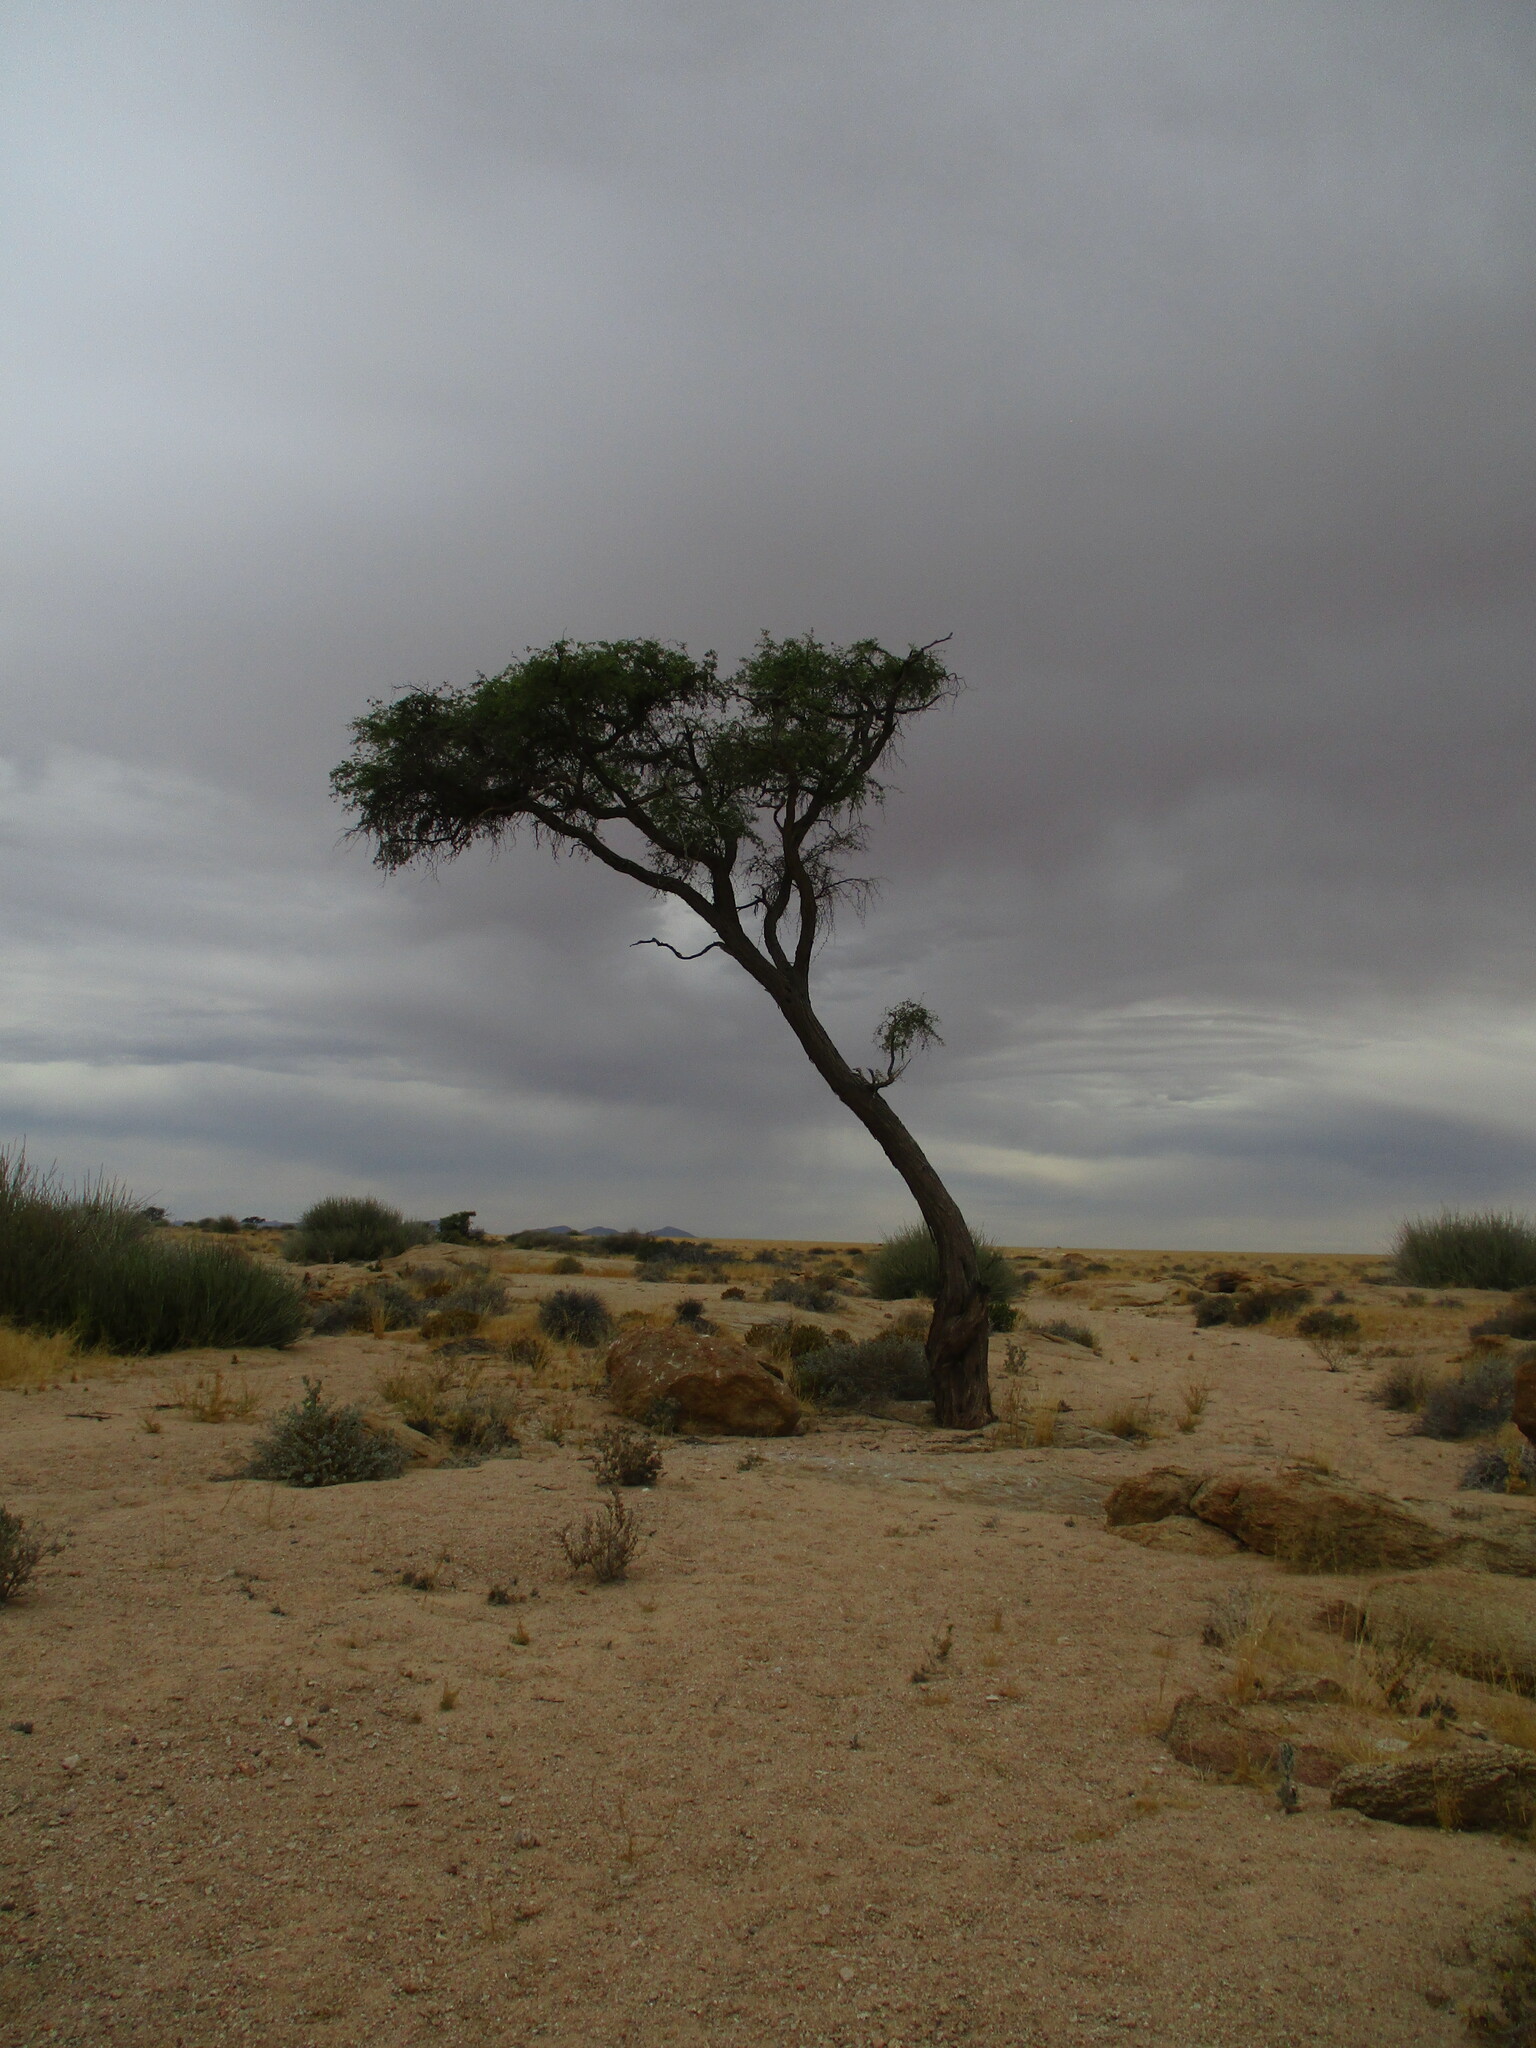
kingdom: Plantae
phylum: Tracheophyta
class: Magnoliopsida
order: Fabales
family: Fabaceae
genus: Vachellia
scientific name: Vachellia erioloba
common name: Camel thorn
